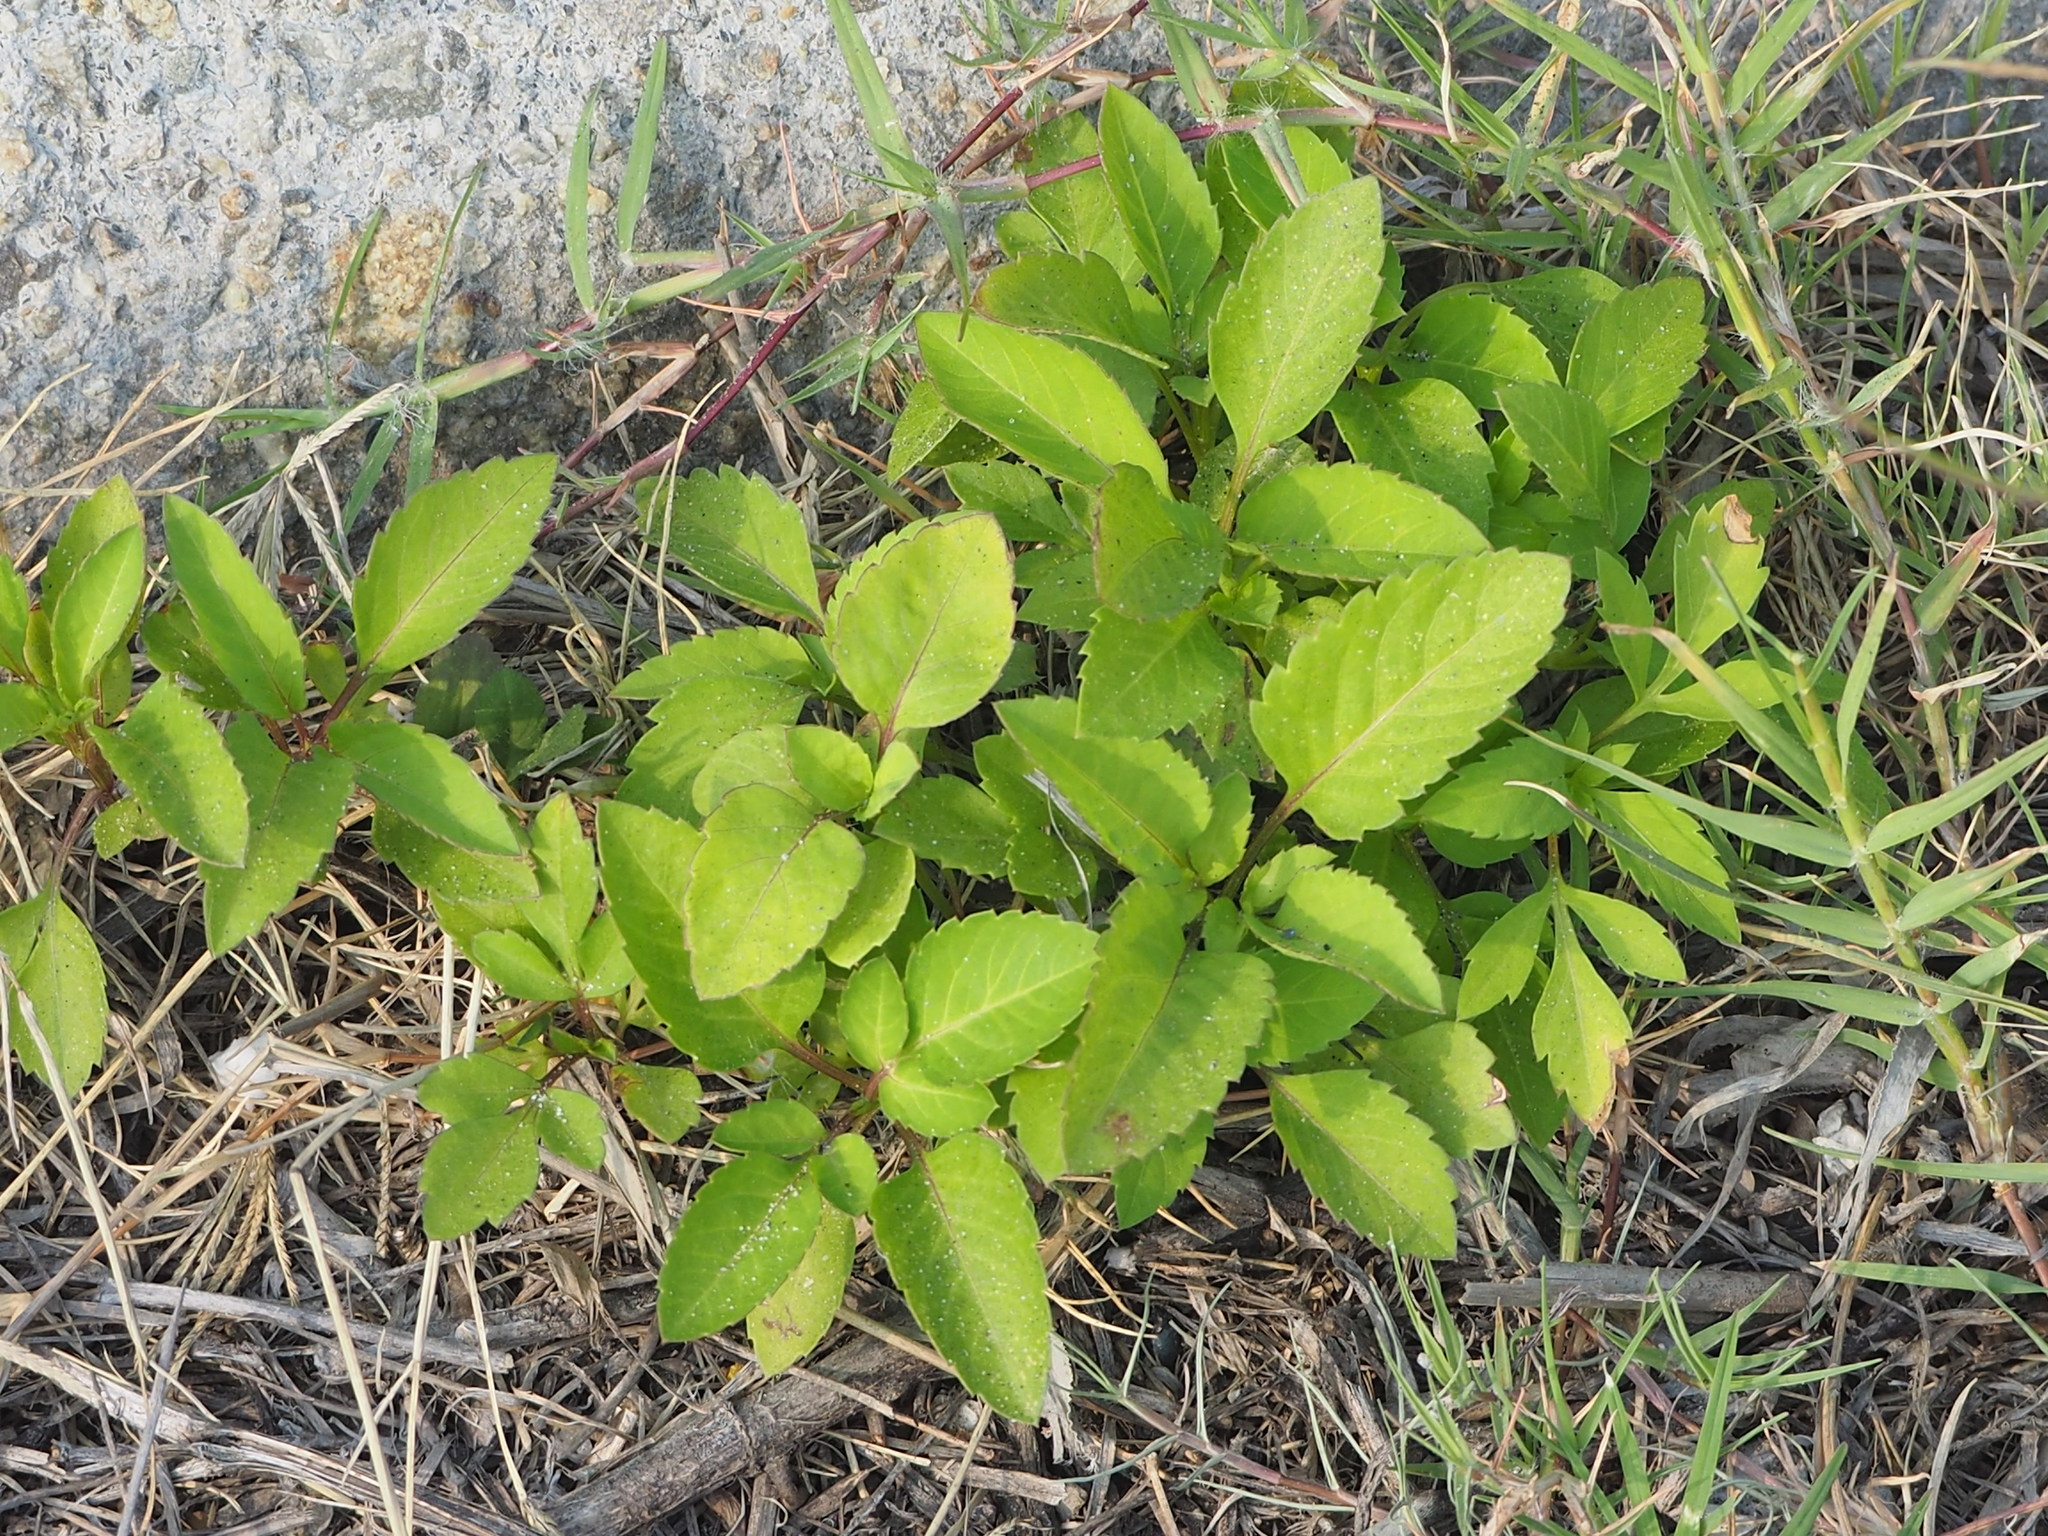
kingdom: Plantae
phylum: Tracheophyta
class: Magnoliopsida
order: Asterales
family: Asteraceae
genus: Bidens
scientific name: Bidens alba
